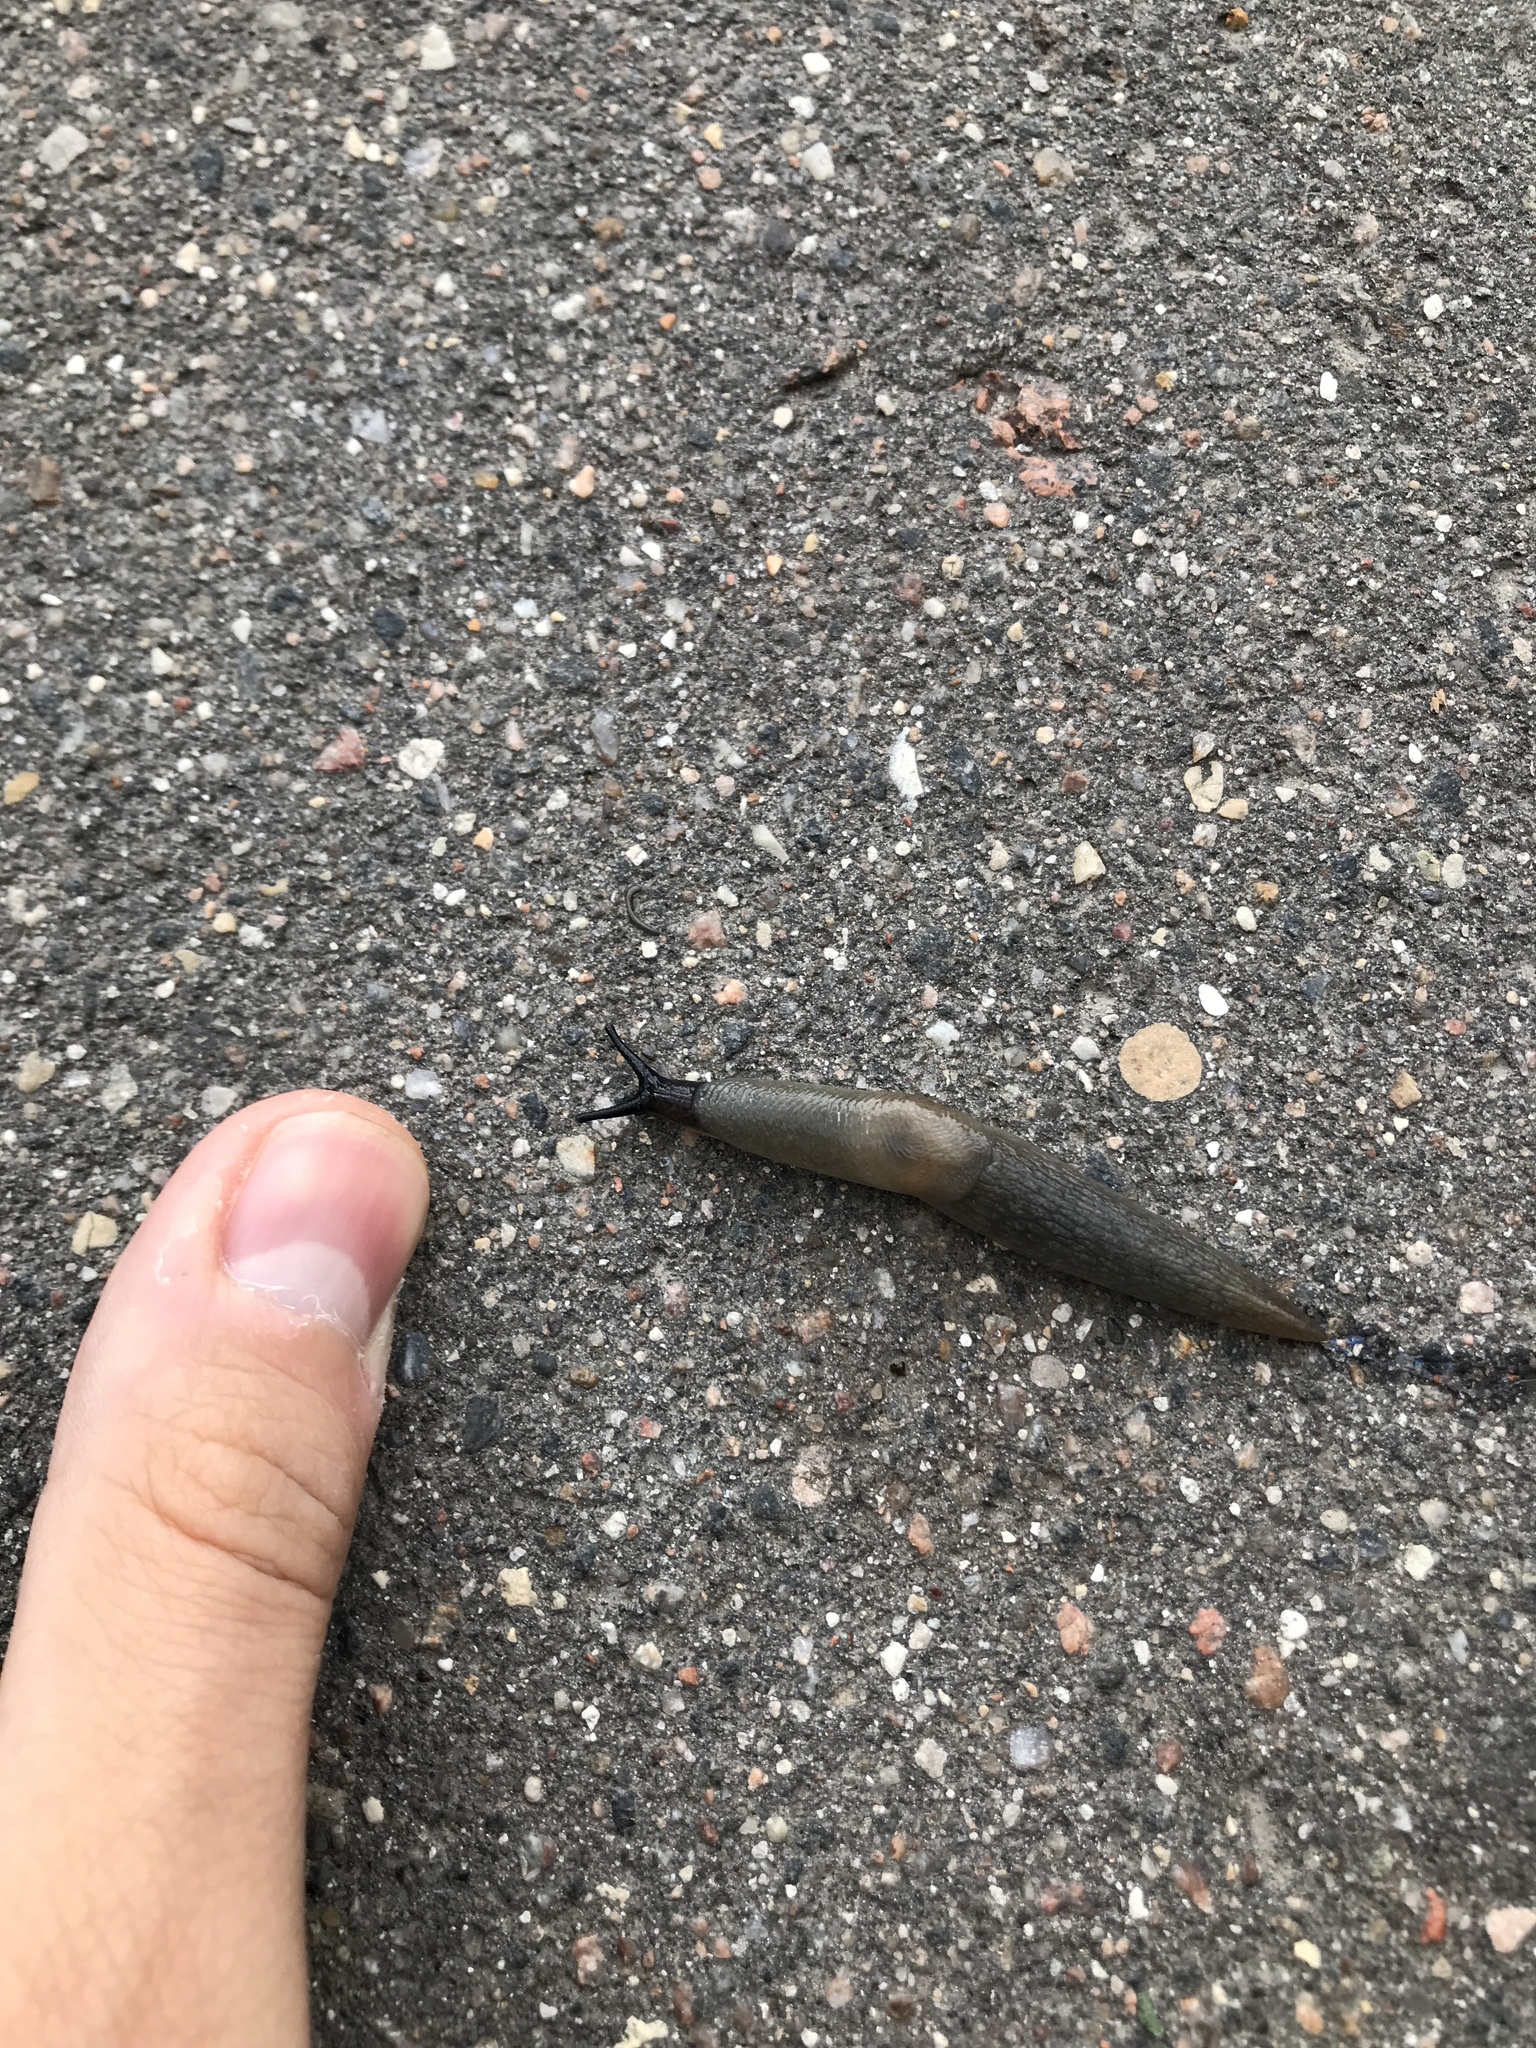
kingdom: Animalia
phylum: Mollusca
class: Gastropoda
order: Stylommatophora
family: Agriolimacidae
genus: Krynickillus
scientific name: Krynickillus melanocephalus
